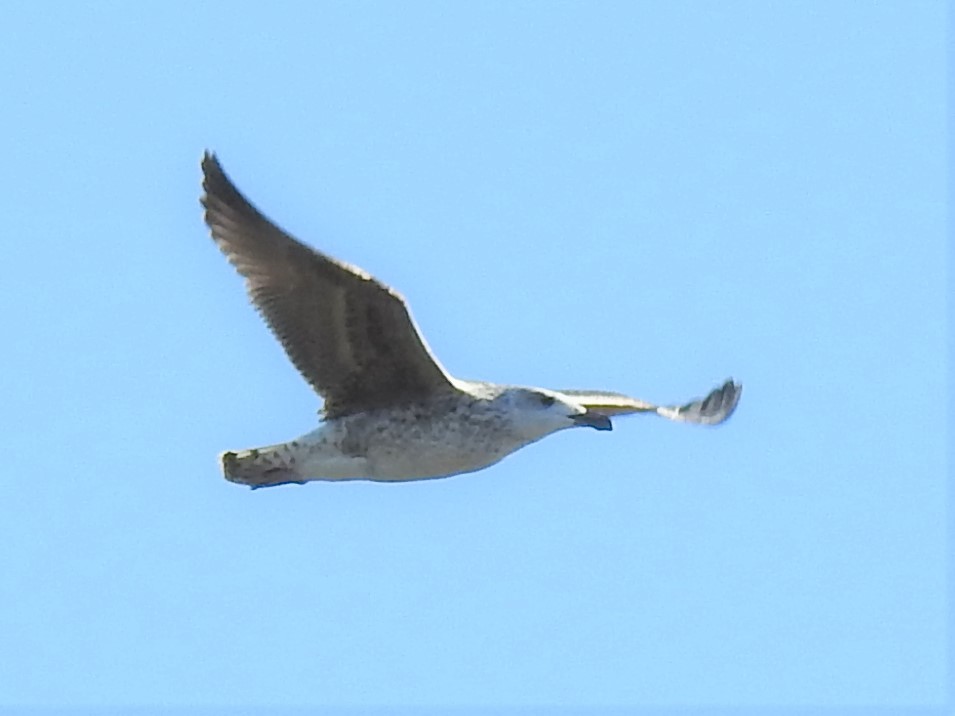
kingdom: Animalia
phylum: Chordata
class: Aves
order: Charadriiformes
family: Laridae
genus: Larus
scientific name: Larus marinus
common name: Great black-backed gull
